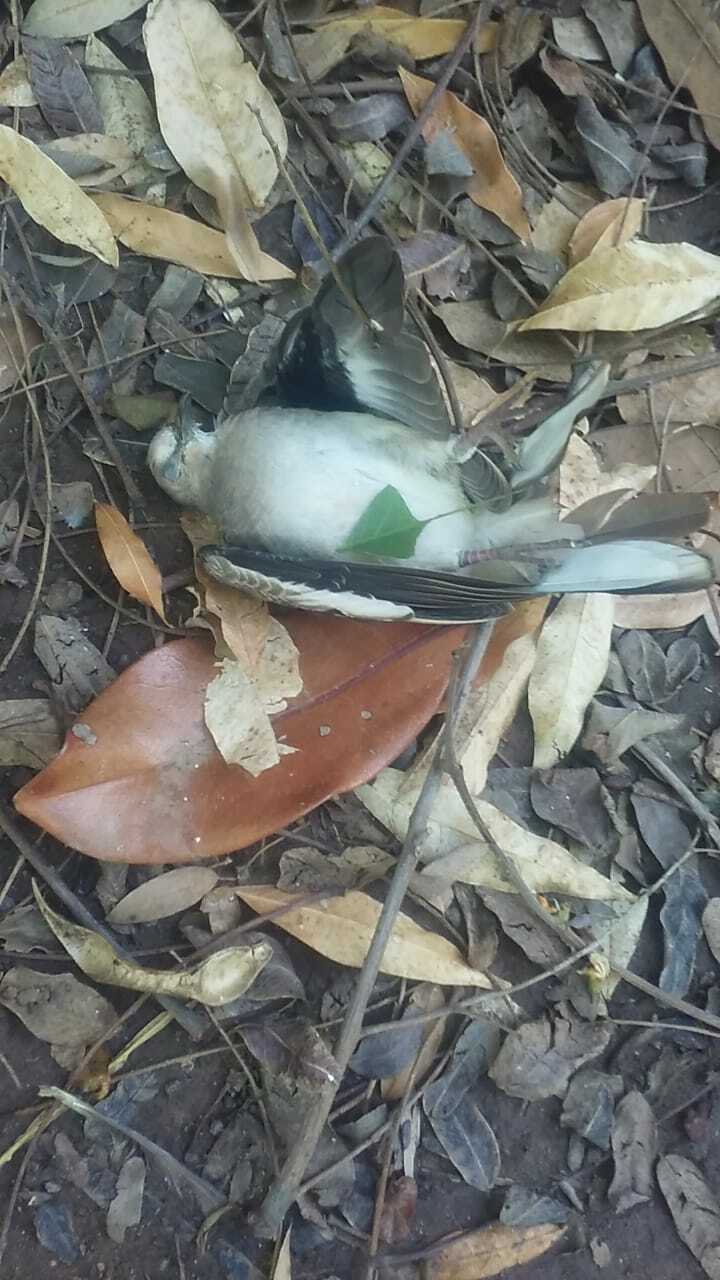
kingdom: Animalia
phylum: Chordata
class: Aves
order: Columbiformes
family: Columbidae
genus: Columbina
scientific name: Columbina picui
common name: Picui ground dove
